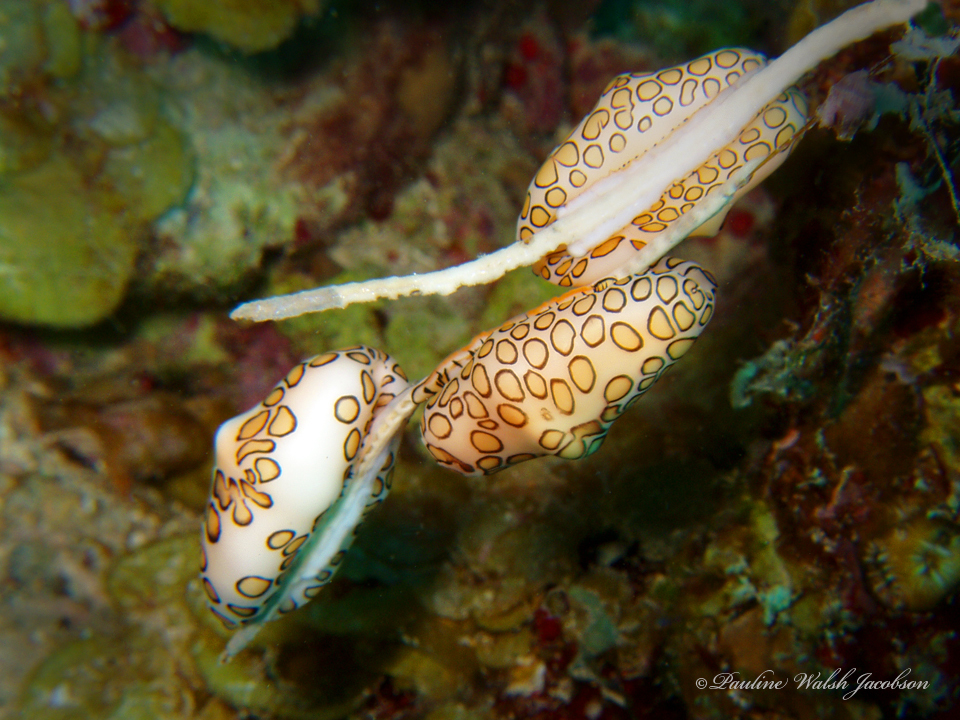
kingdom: Animalia
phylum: Mollusca
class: Gastropoda
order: Littorinimorpha
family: Ovulidae
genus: Cyphoma
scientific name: Cyphoma gibbosum
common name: Flamingo tongue
